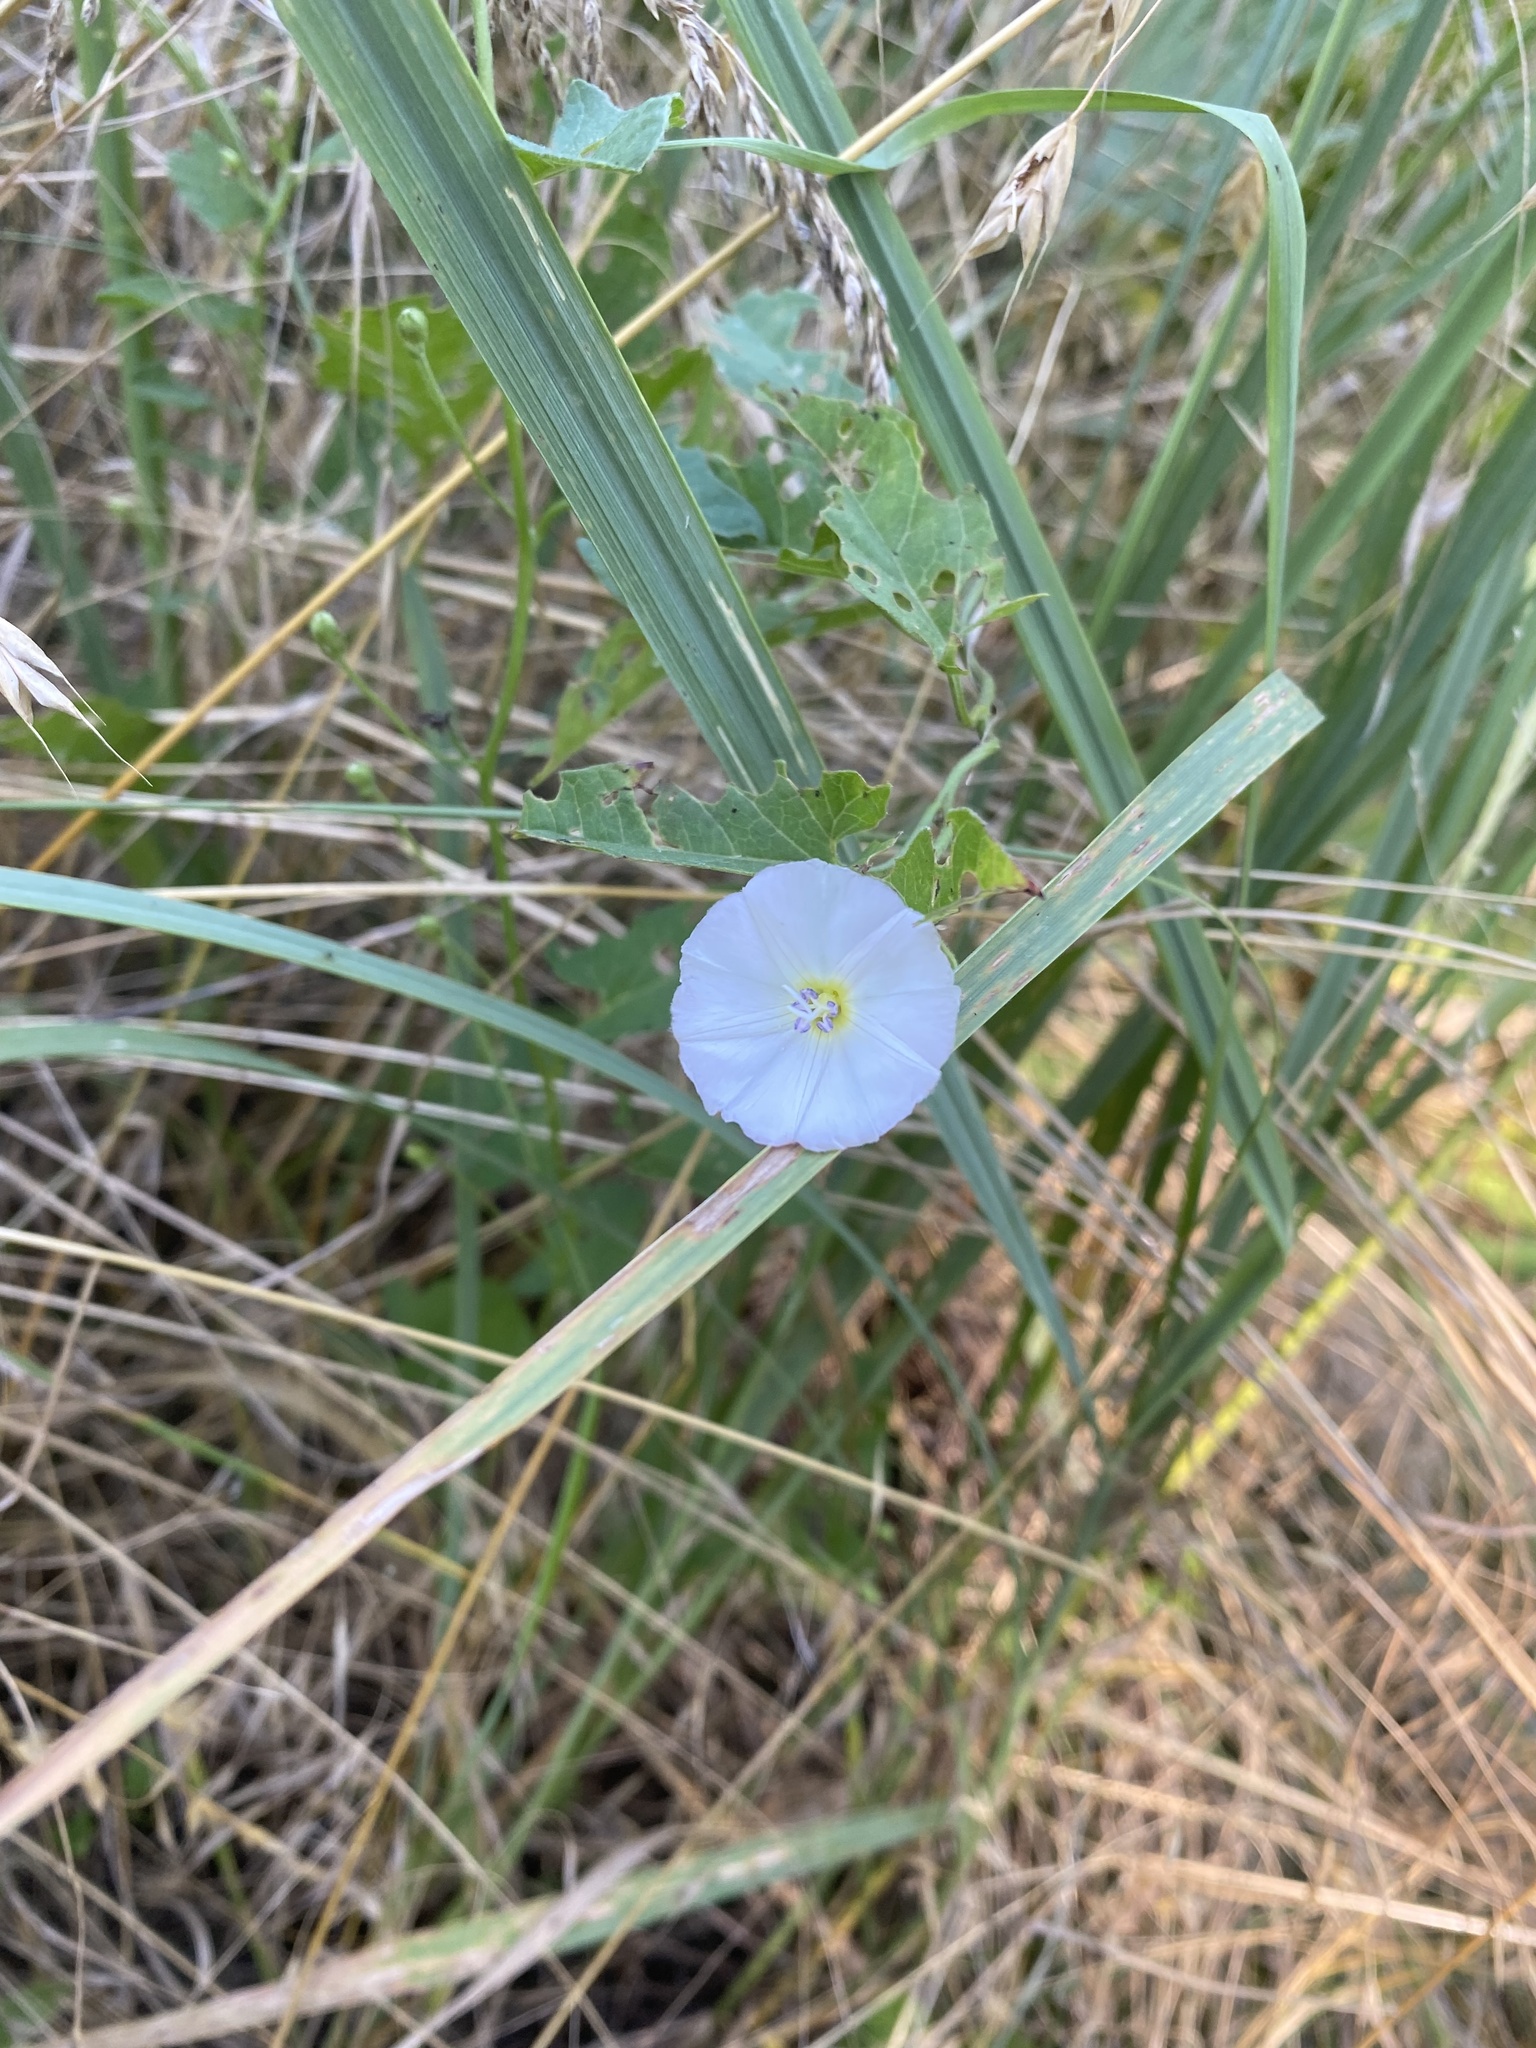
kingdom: Plantae
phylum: Tracheophyta
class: Magnoliopsida
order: Solanales
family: Convolvulaceae
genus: Convolvulus
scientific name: Convolvulus arvensis
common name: Field bindweed
